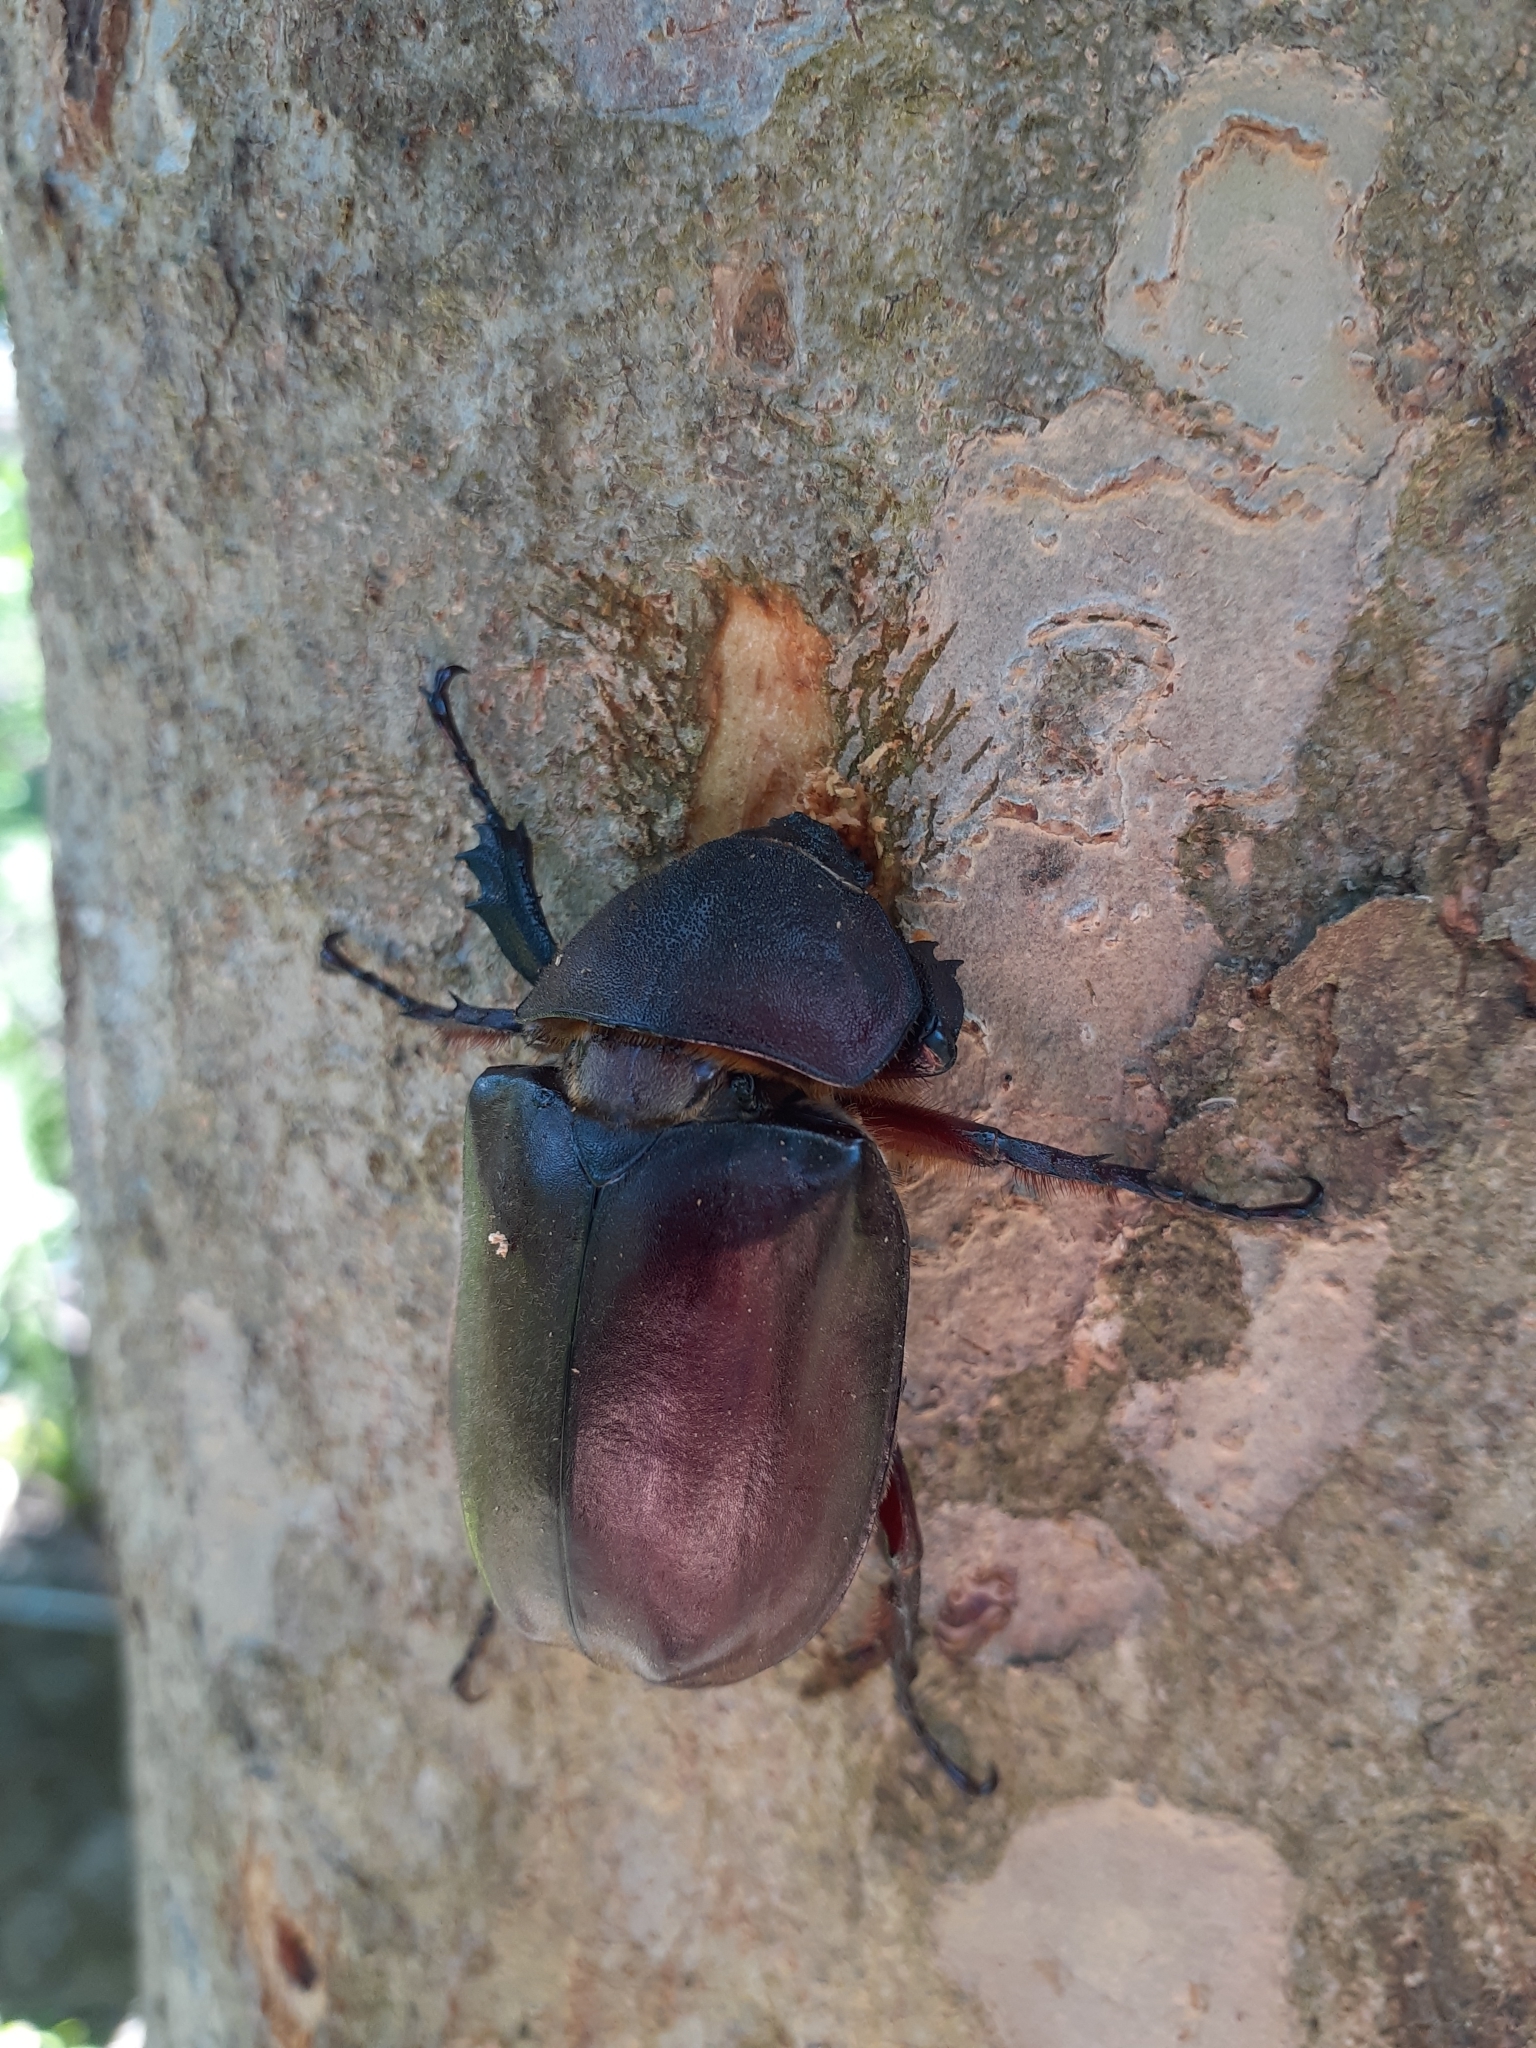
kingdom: Animalia
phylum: Arthropoda
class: Insecta
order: Coleoptera
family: Scarabaeidae
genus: Trypoxylus
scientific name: Trypoxylus dichotomus
